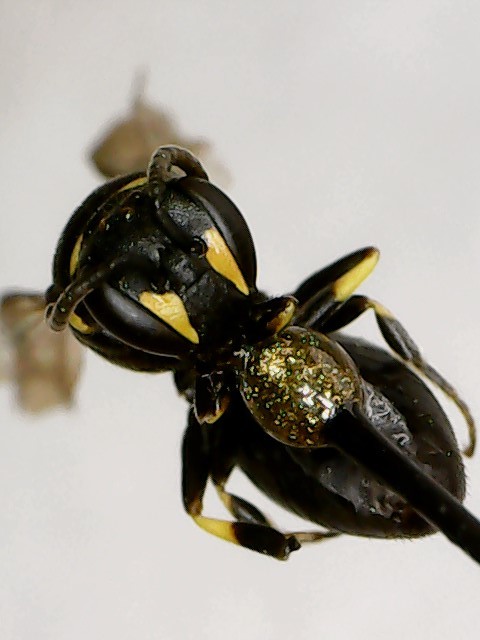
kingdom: Animalia
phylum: Arthropoda
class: Insecta
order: Hymenoptera
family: Colletidae
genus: Hylaeus
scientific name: Hylaeus modestus
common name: Yellow-faced bee
